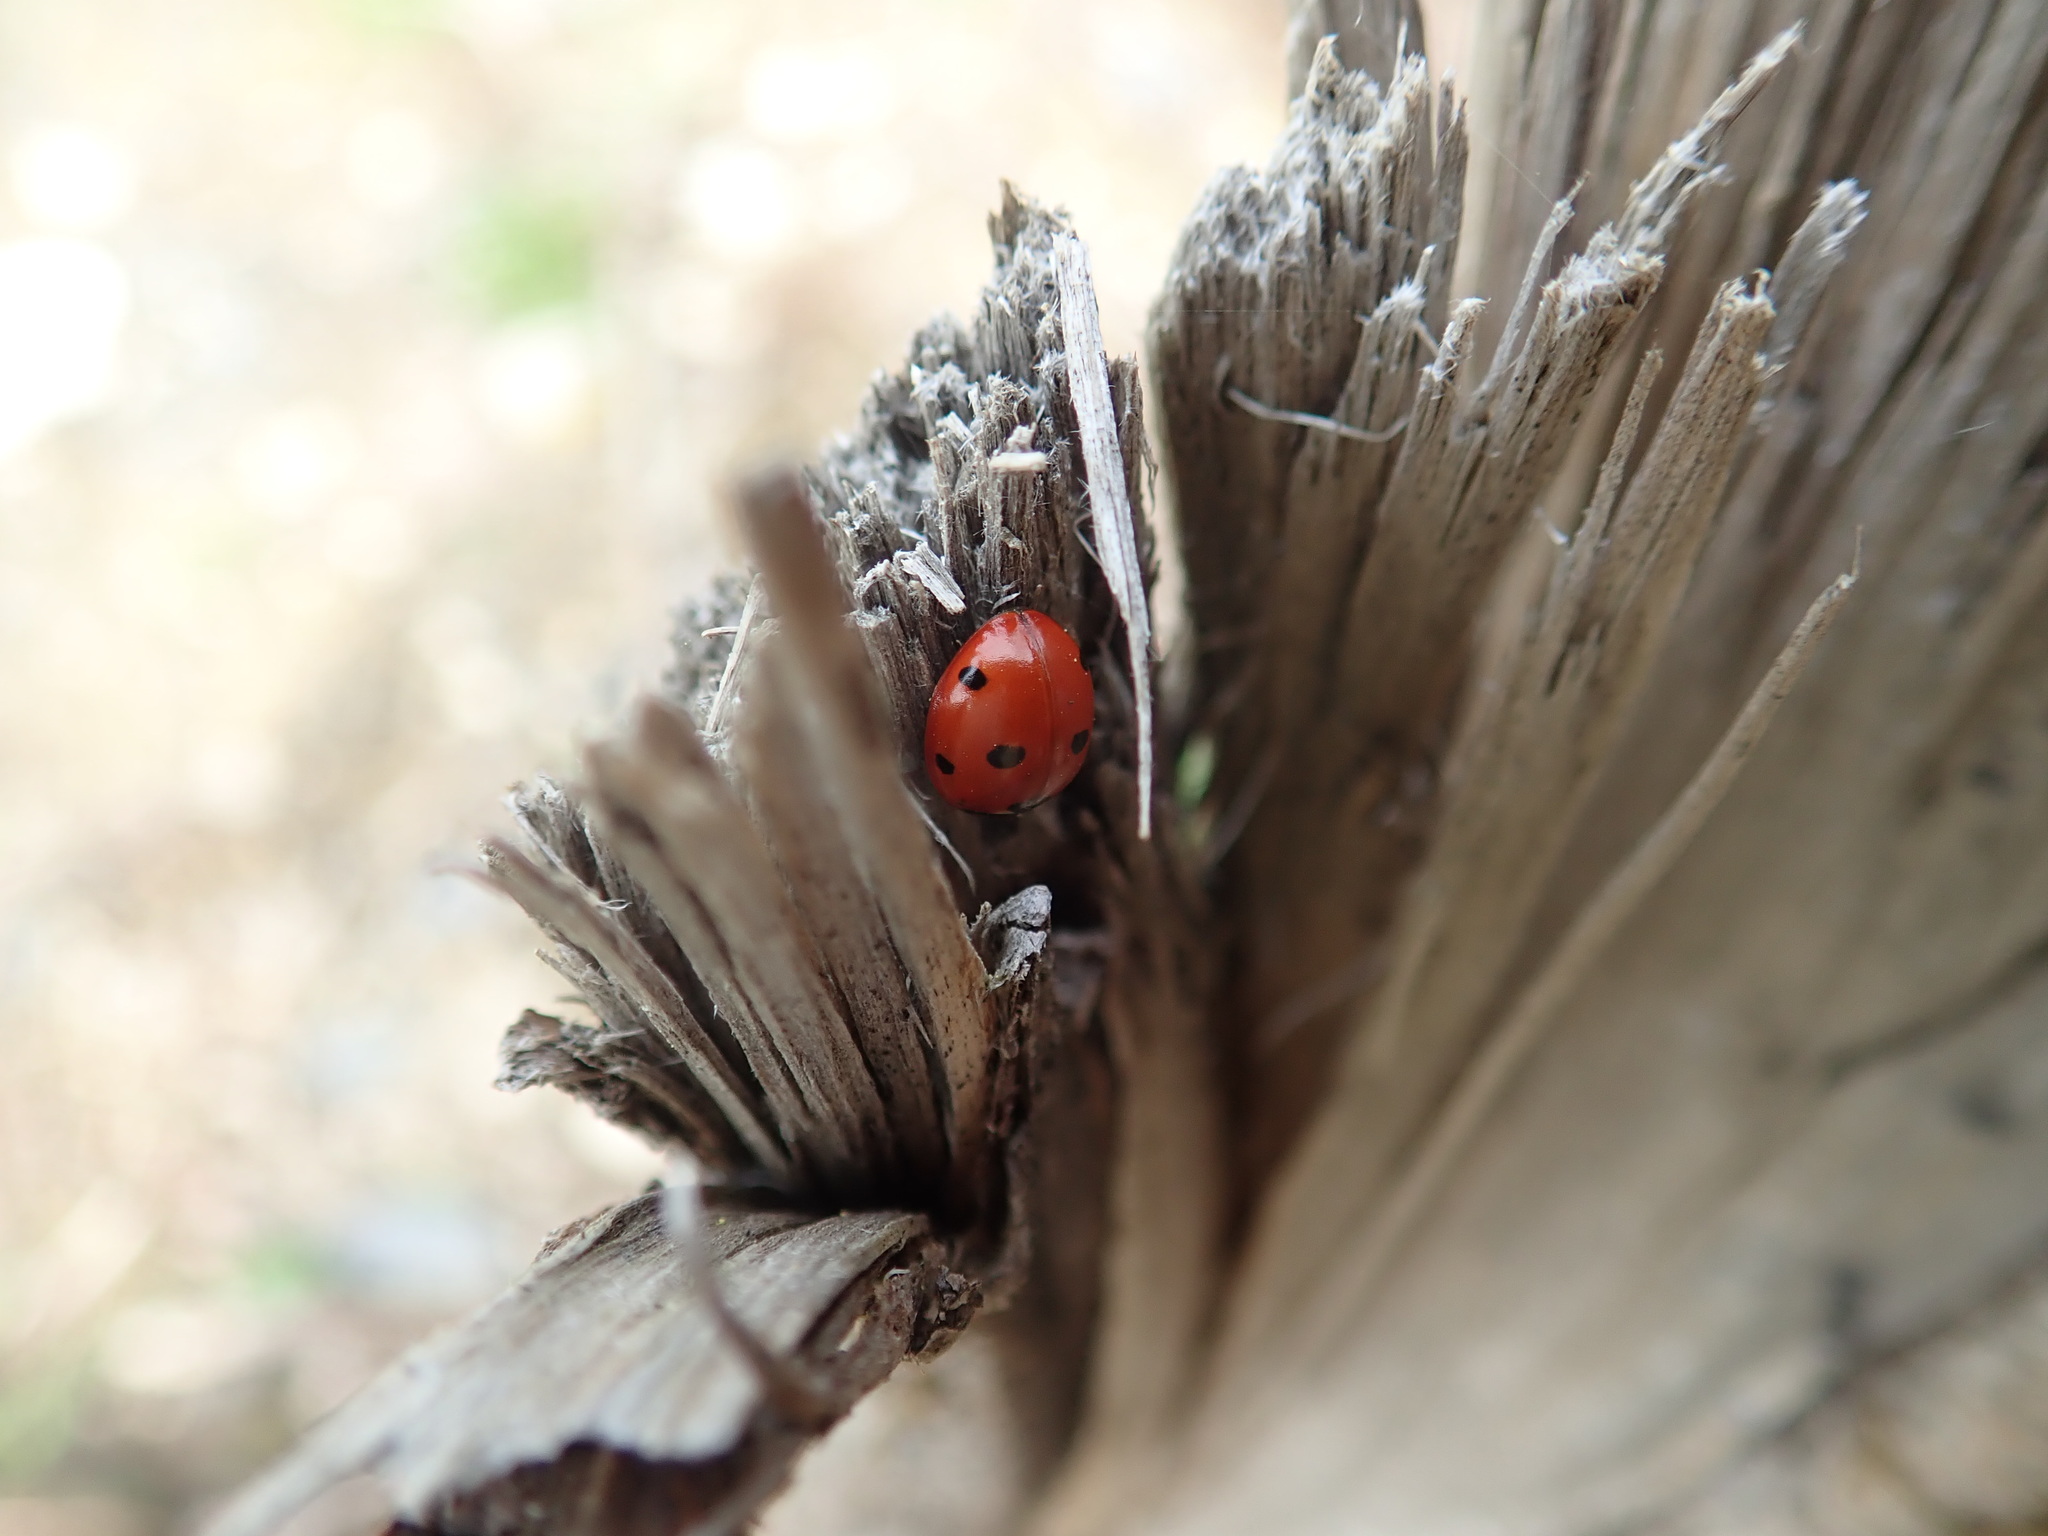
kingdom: Animalia
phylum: Arthropoda
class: Insecta
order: Coleoptera
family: Coccinellidae
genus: Coccinella
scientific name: Coccinella septempunctata
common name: Sevenspotted lady beetle
